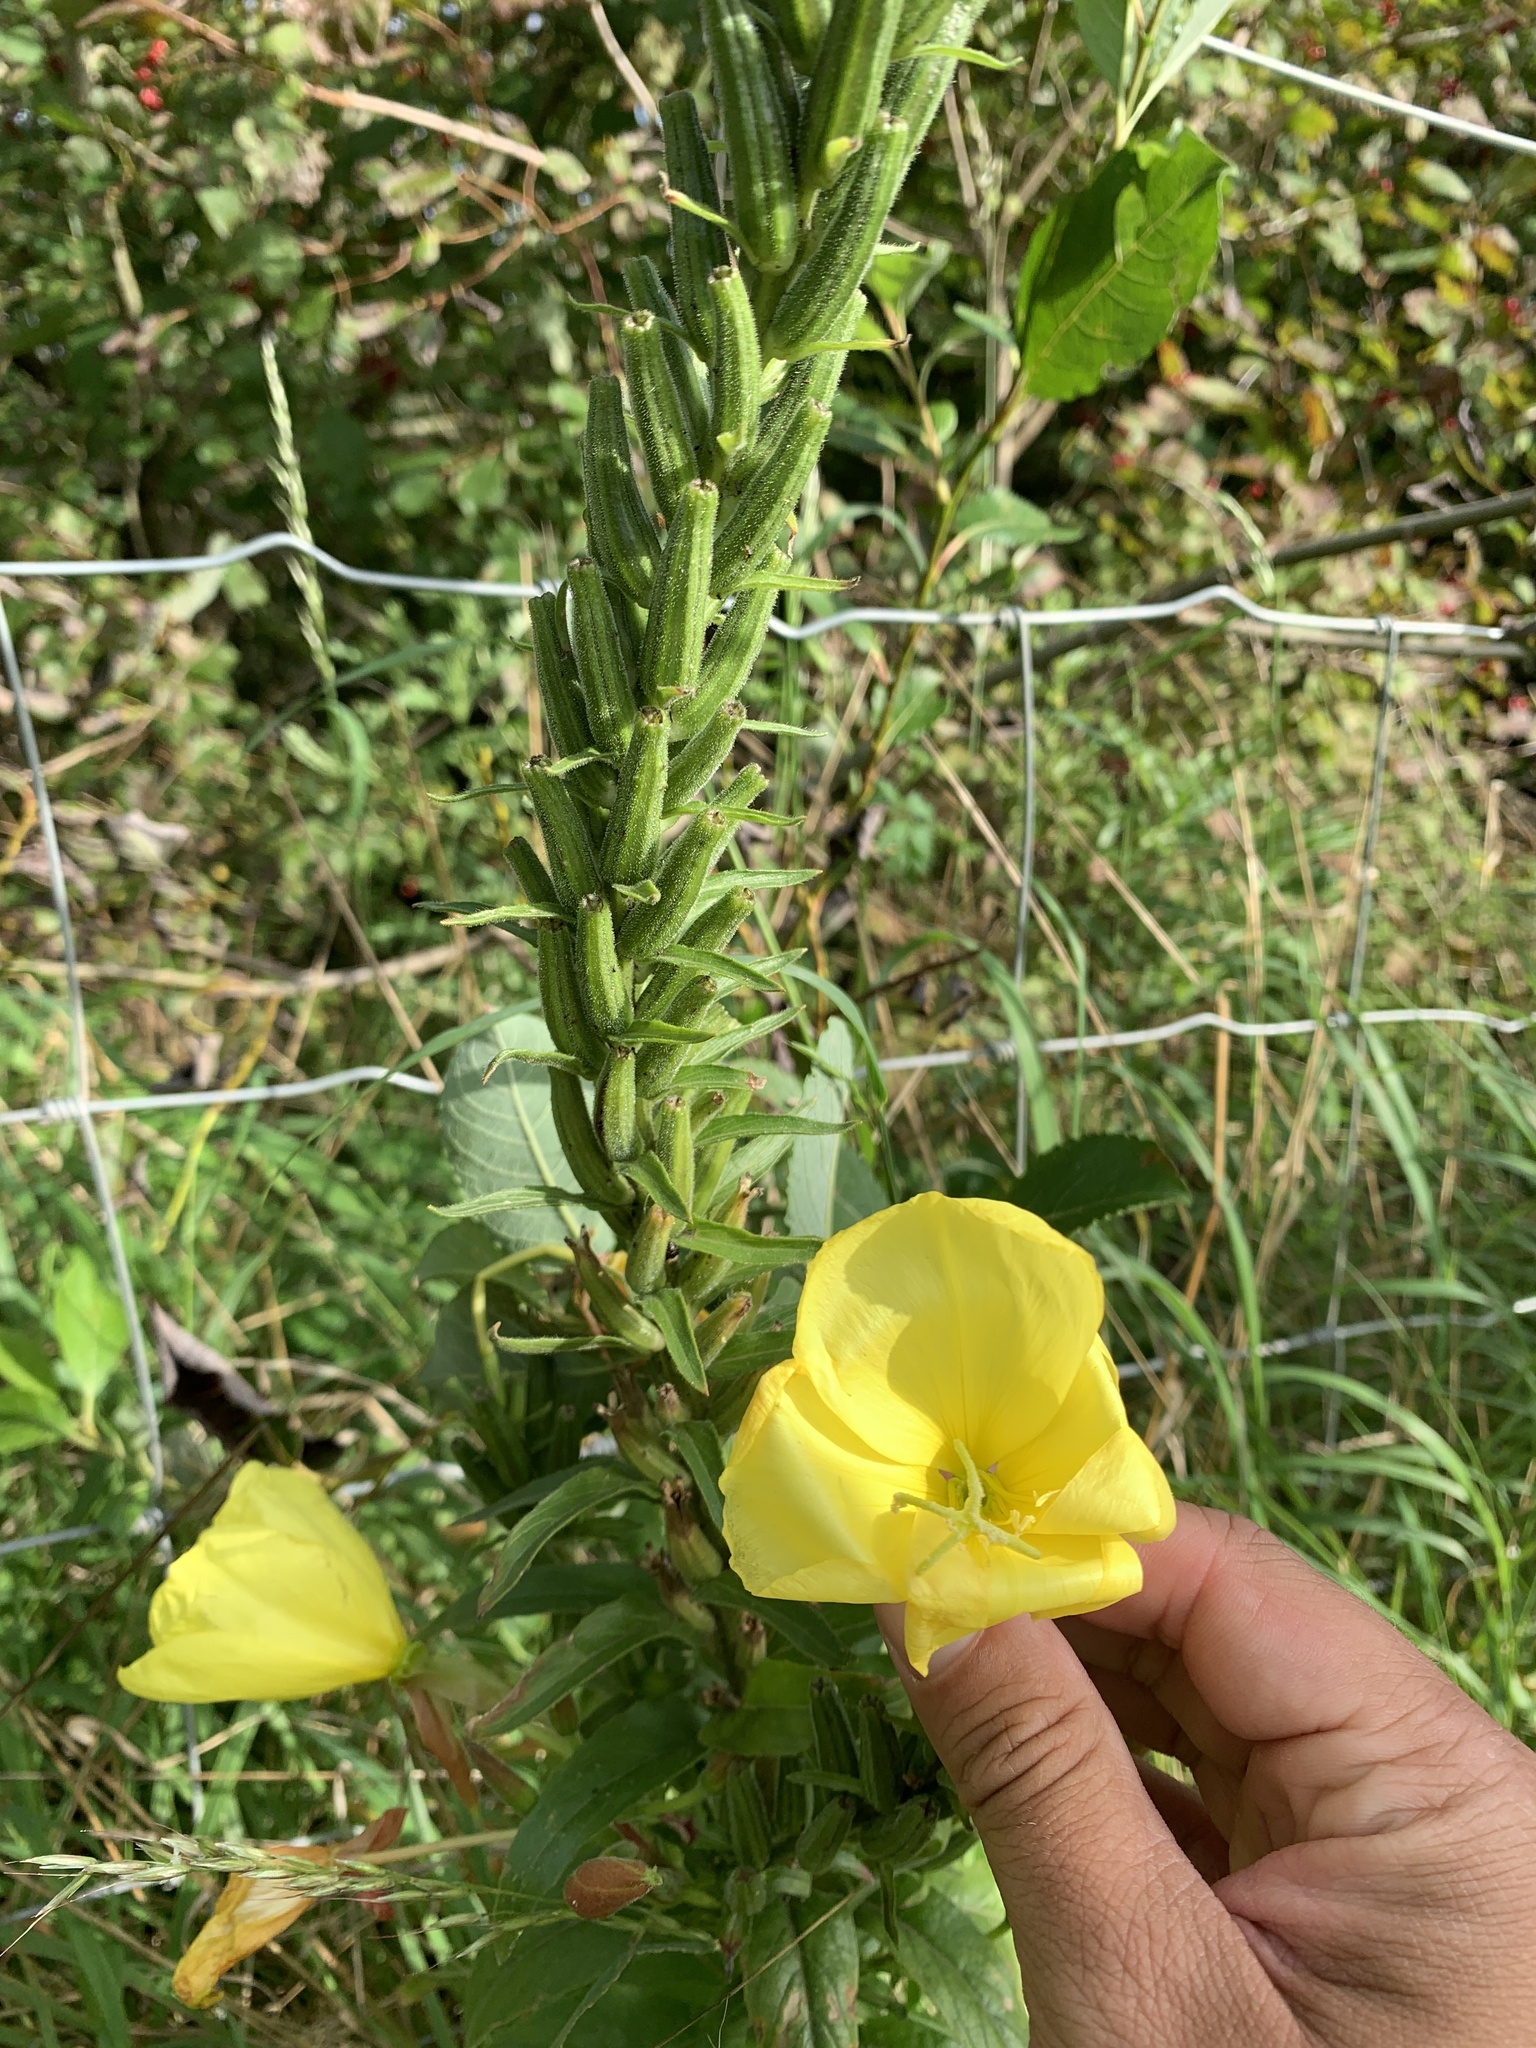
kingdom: Plantae
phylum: Tracheophyta
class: Magnoliopsida
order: Myrtales
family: Onagraceae
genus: Oenothera
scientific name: Oenothera biennis
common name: Common evening-primrose
